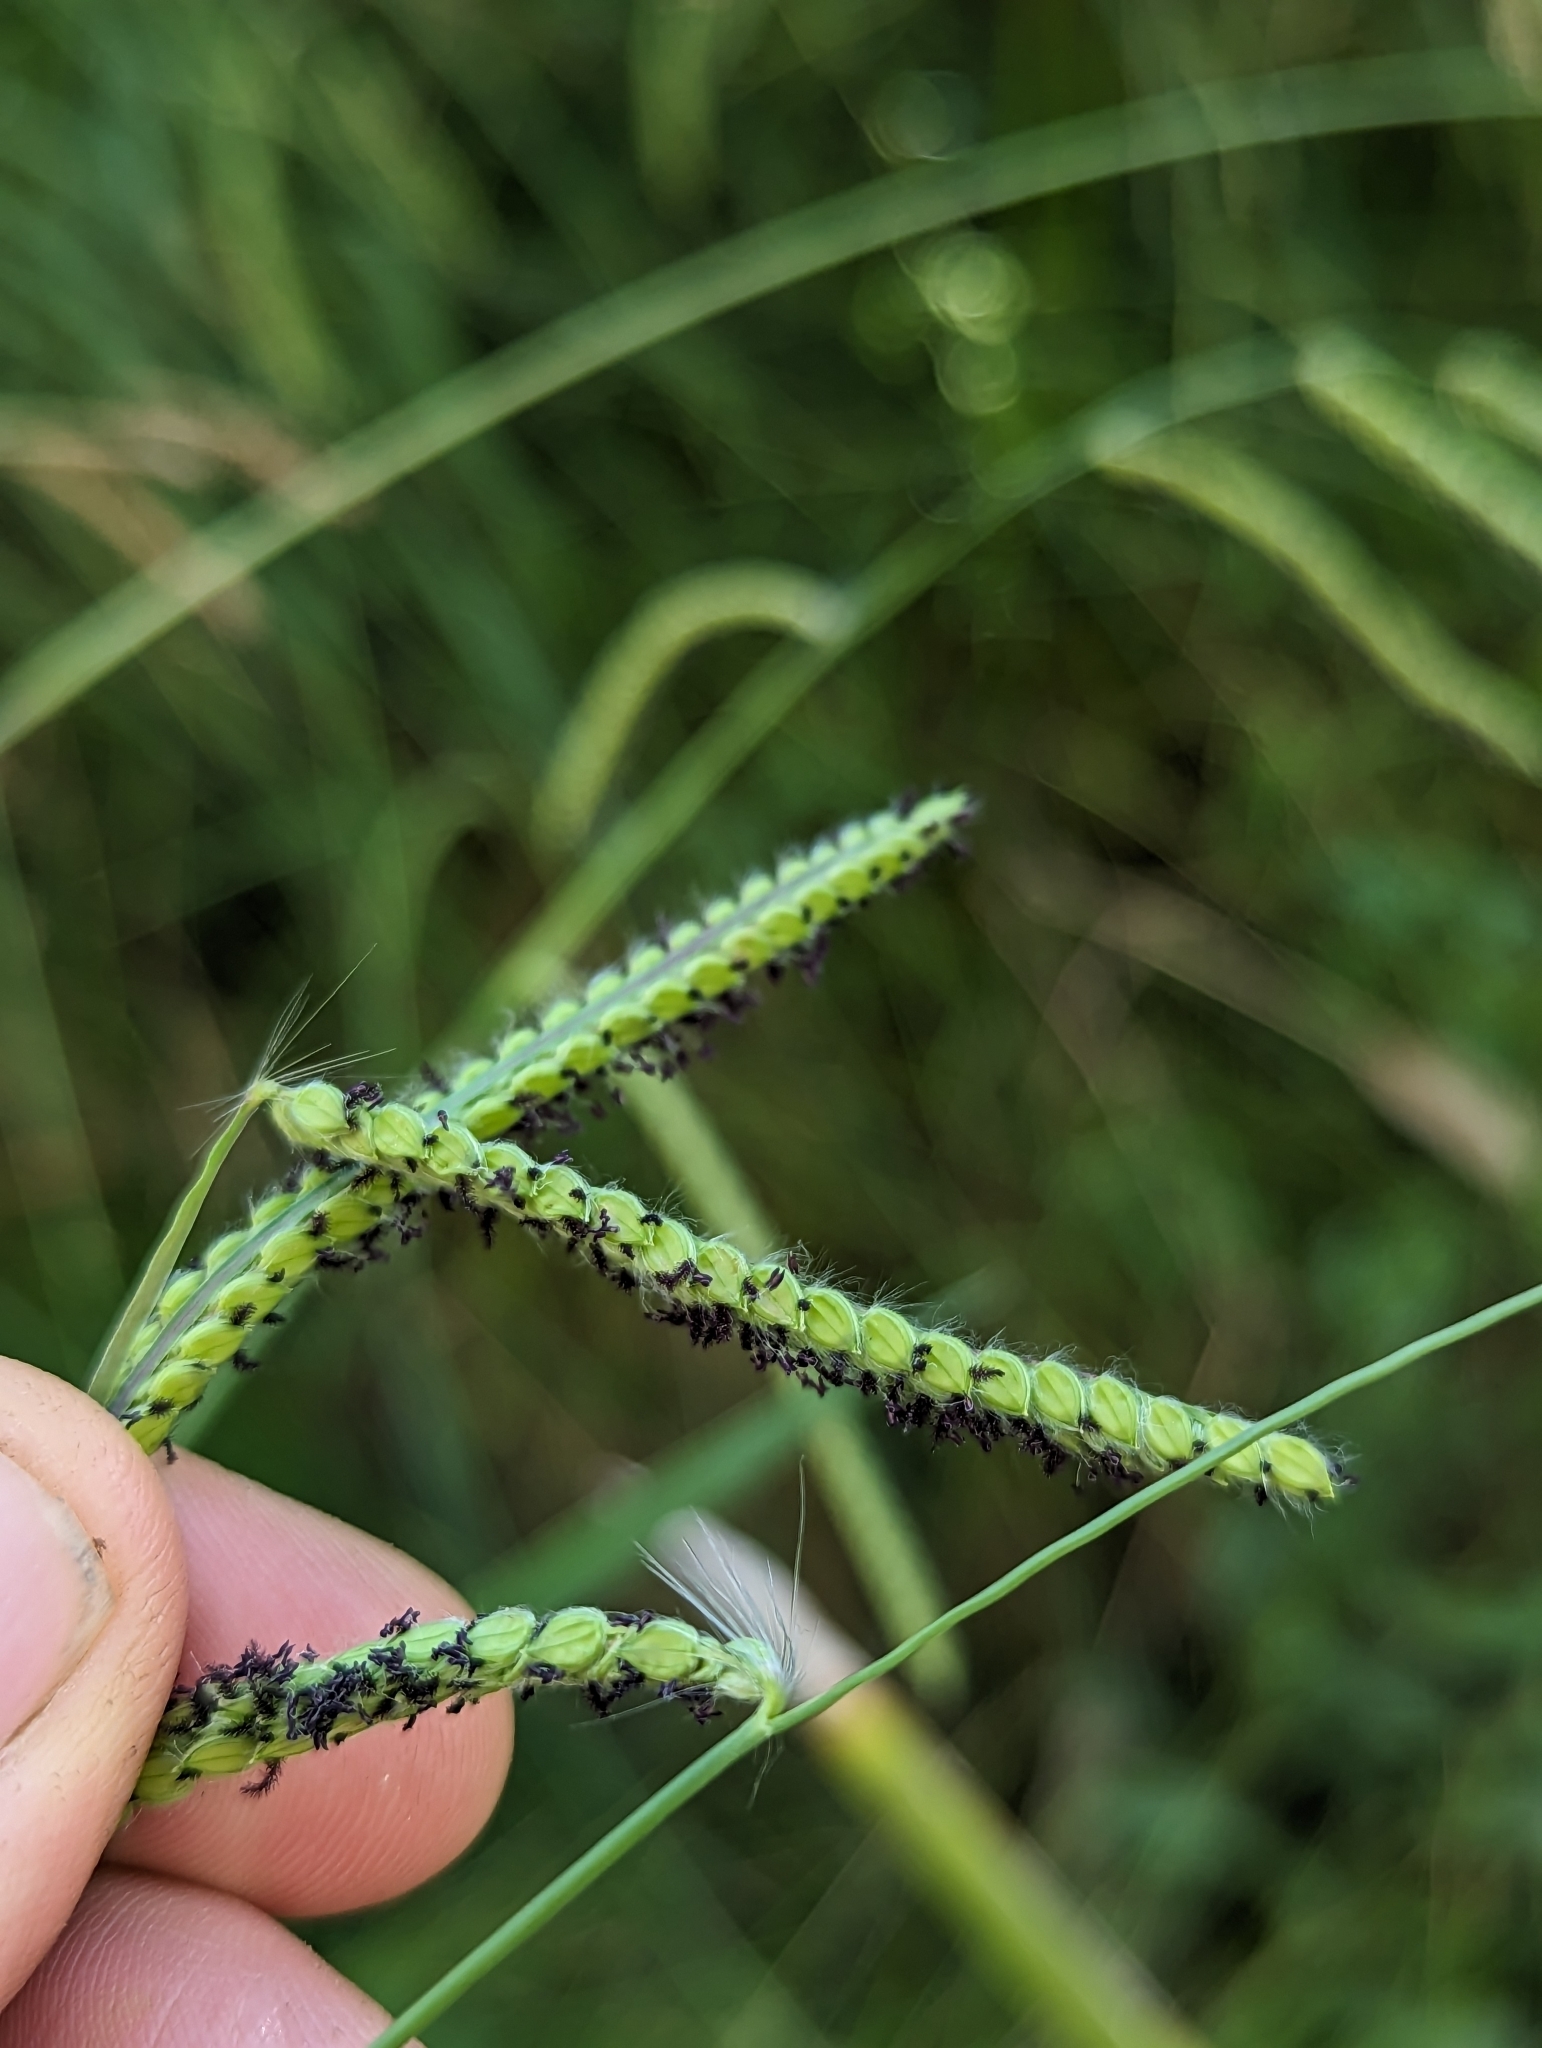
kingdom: Plantae
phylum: Tracheophyta
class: Liliopsida
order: Poales
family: Poaceae
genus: Paspalum
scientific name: Paspalum dilatatum
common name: Dallisgrass
